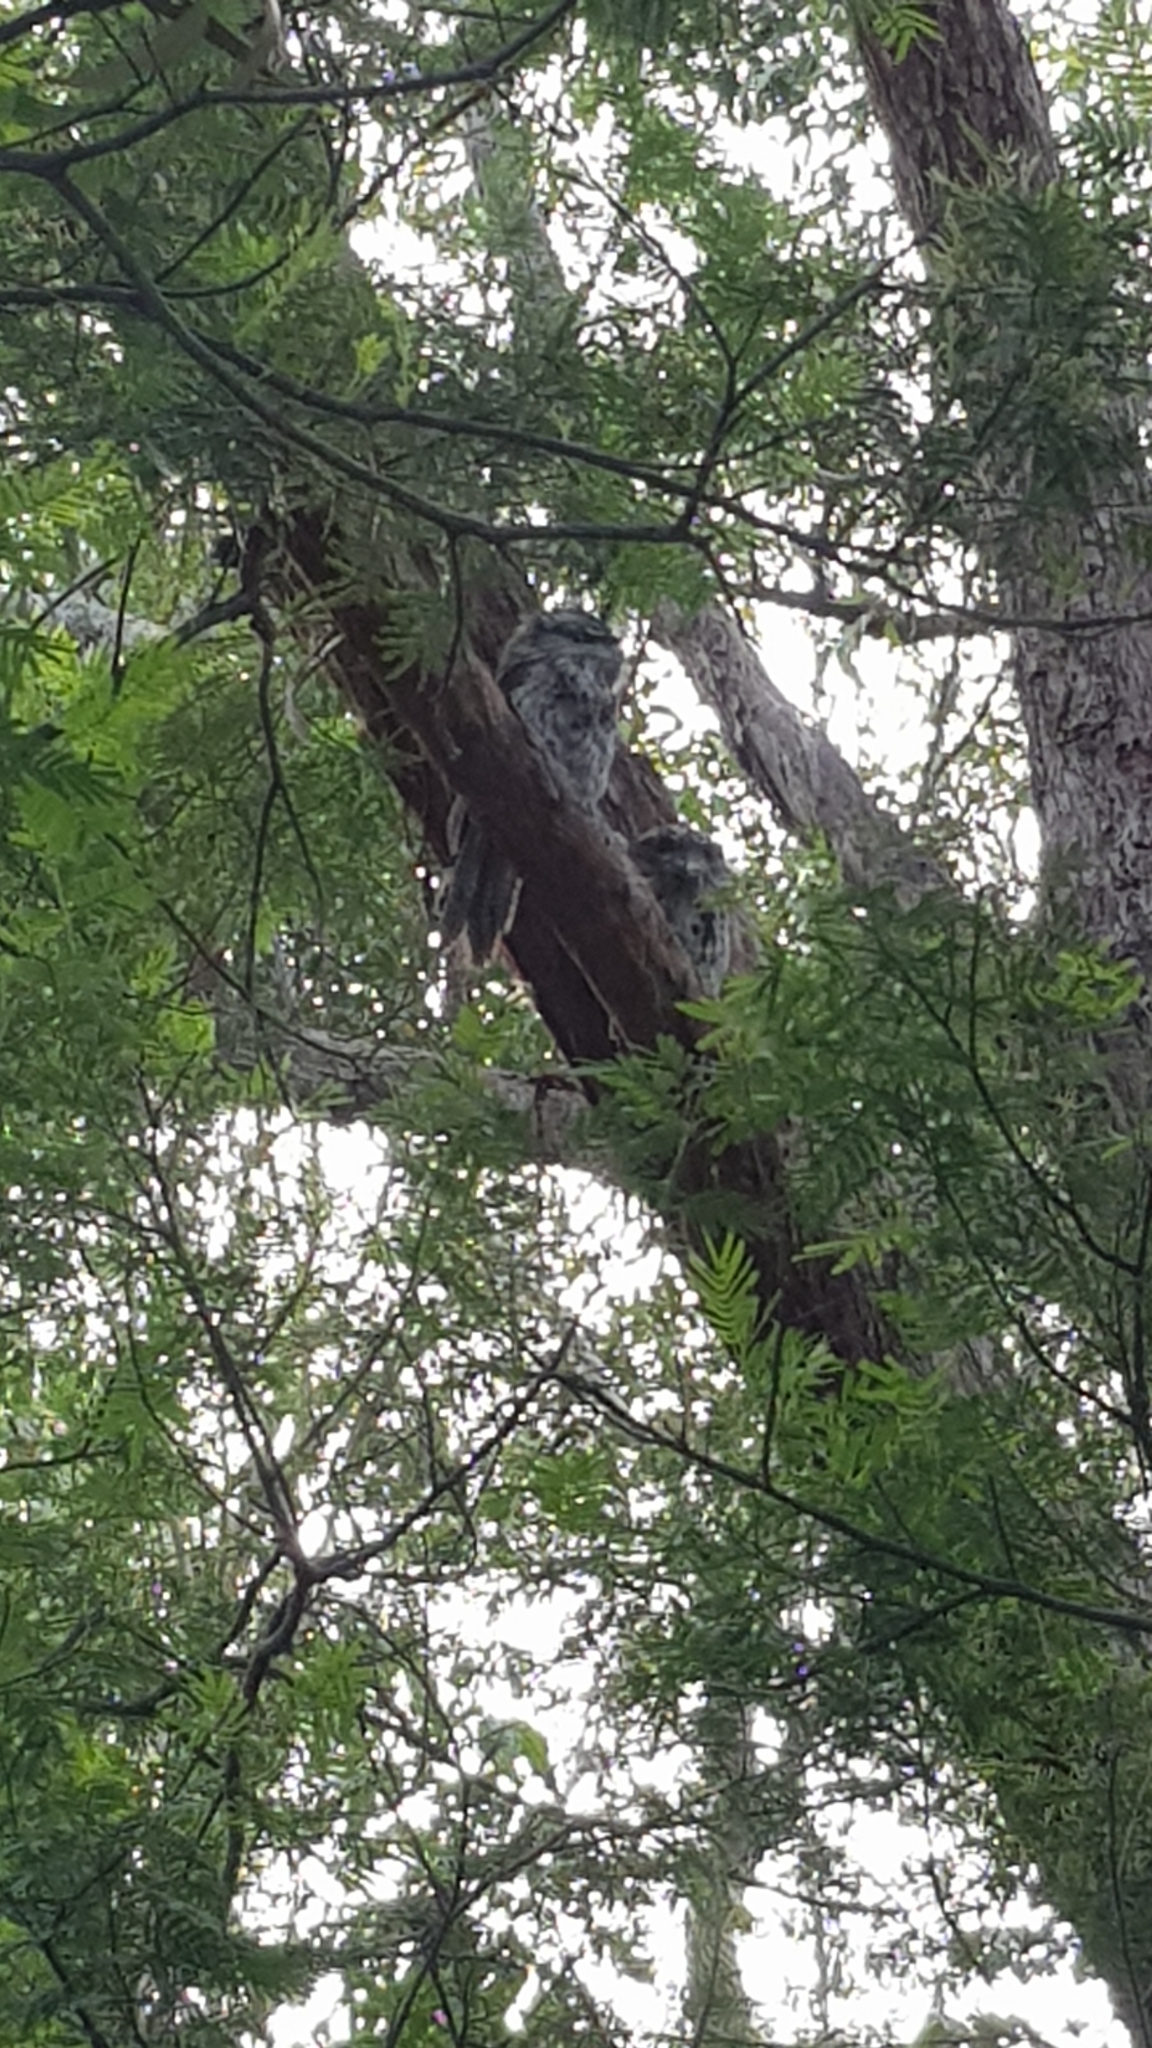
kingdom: Animalia
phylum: Chordata
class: Aves
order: Caprimulgiformes
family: Podargidae
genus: Podargus
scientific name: Podargus strigoides
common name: Tawny frogmouth
